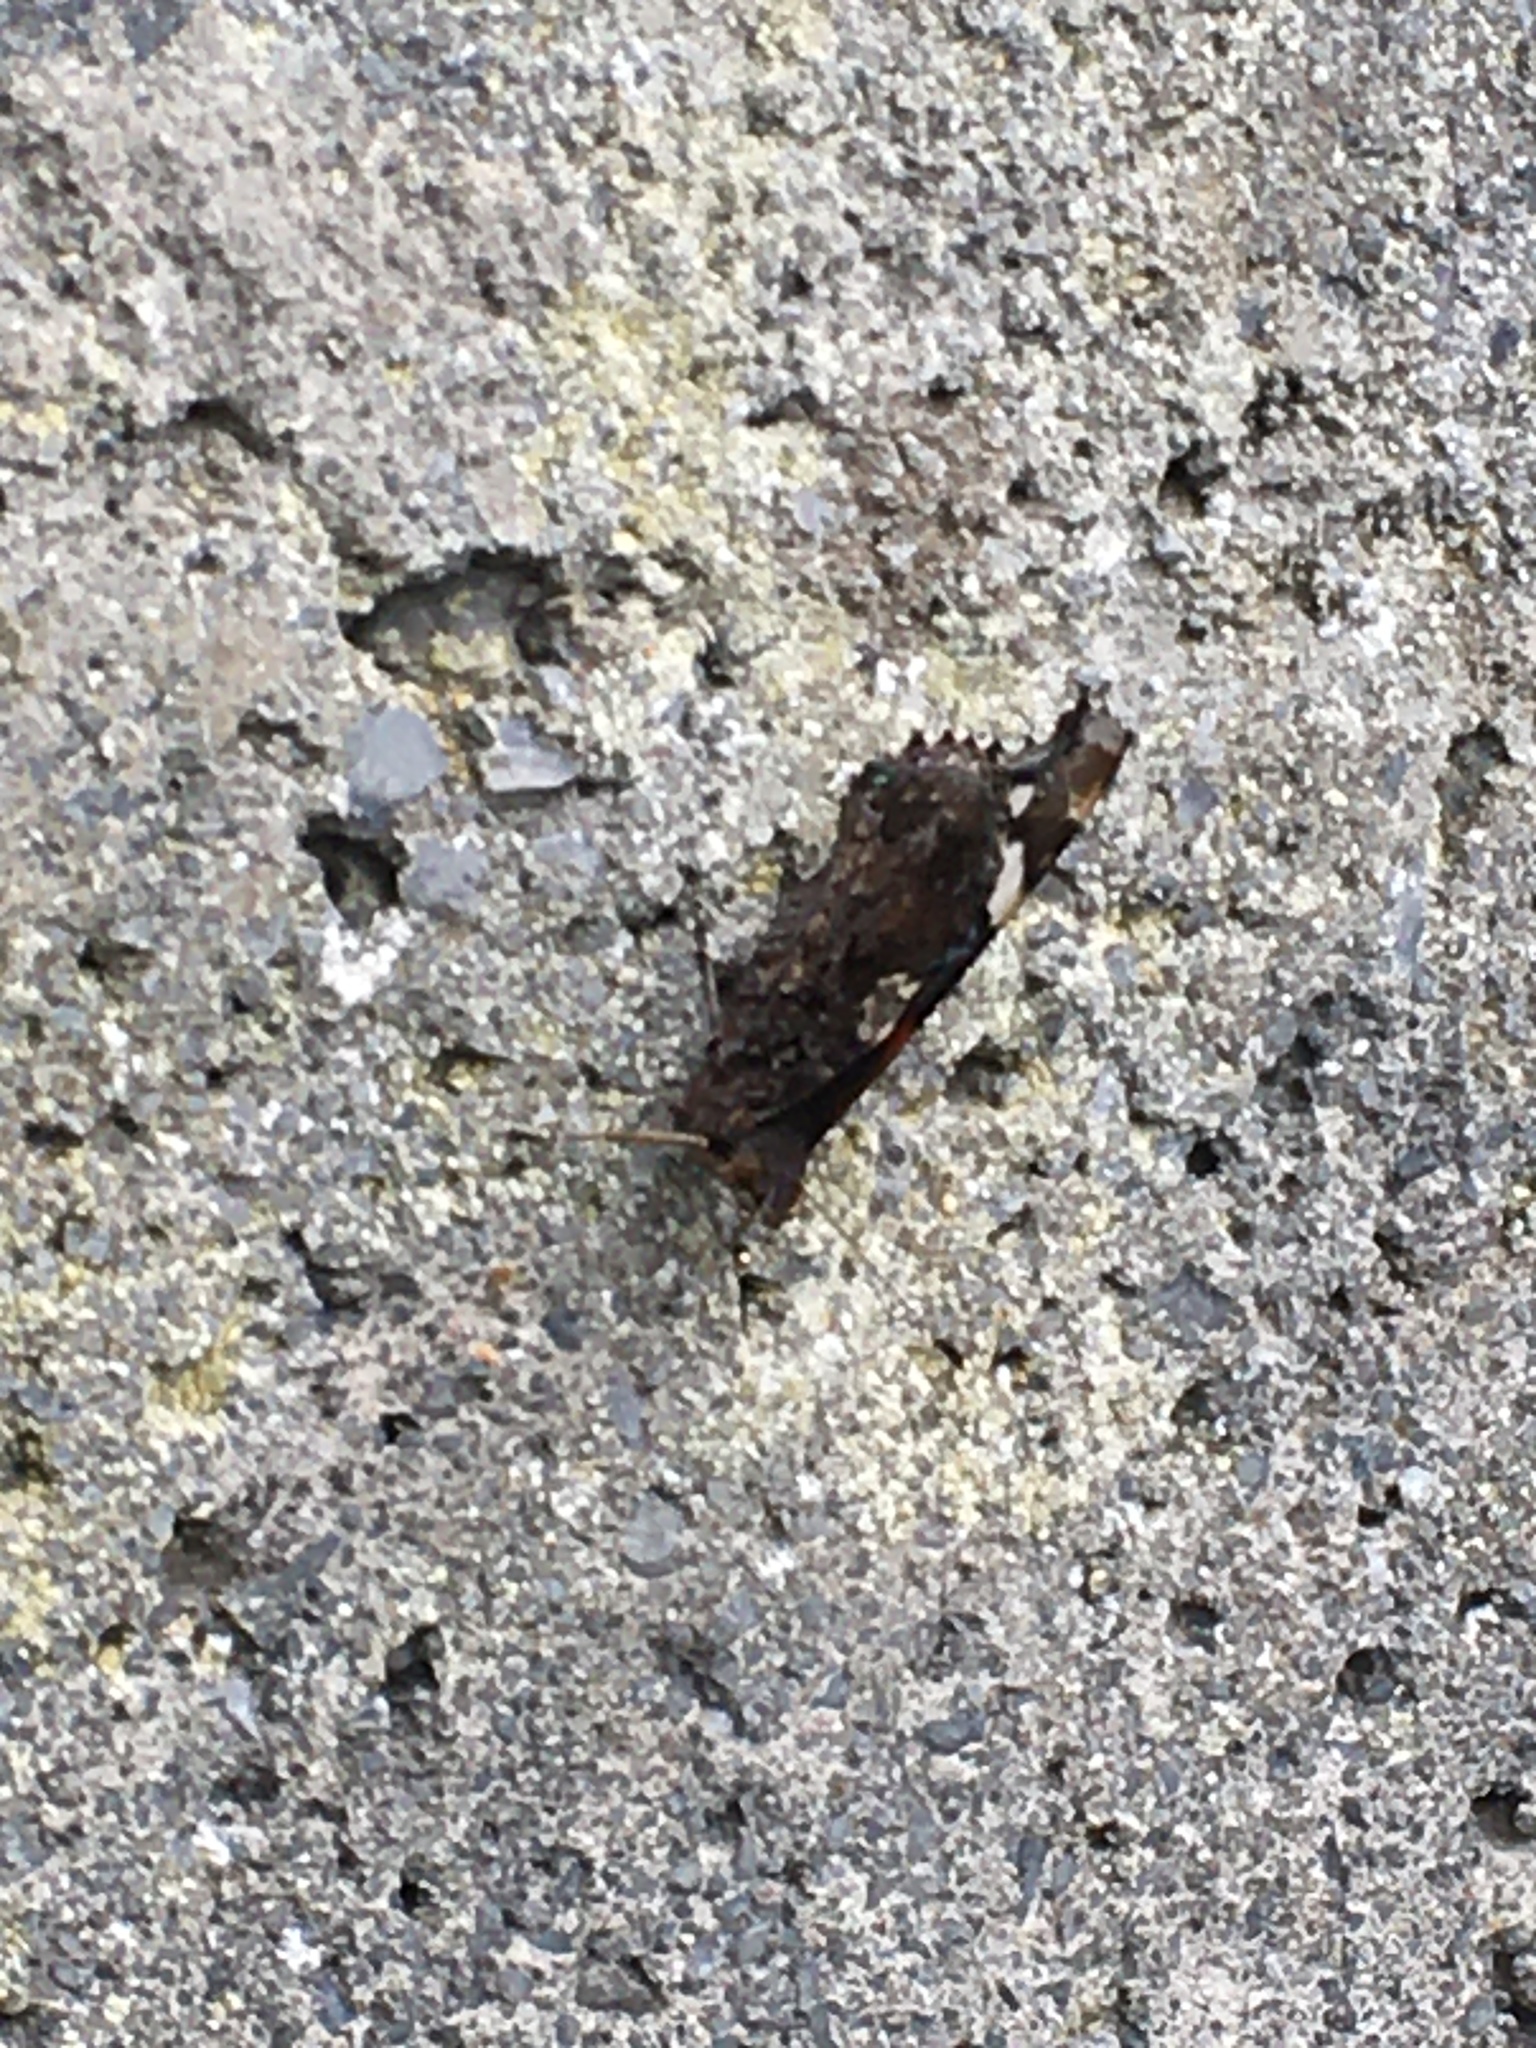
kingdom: Animalia
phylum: Arthropoda
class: Insecta
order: Lepidoptera
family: Nymphalidae
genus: Vanessa
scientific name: Vanessa atalanta
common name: Red admiral
